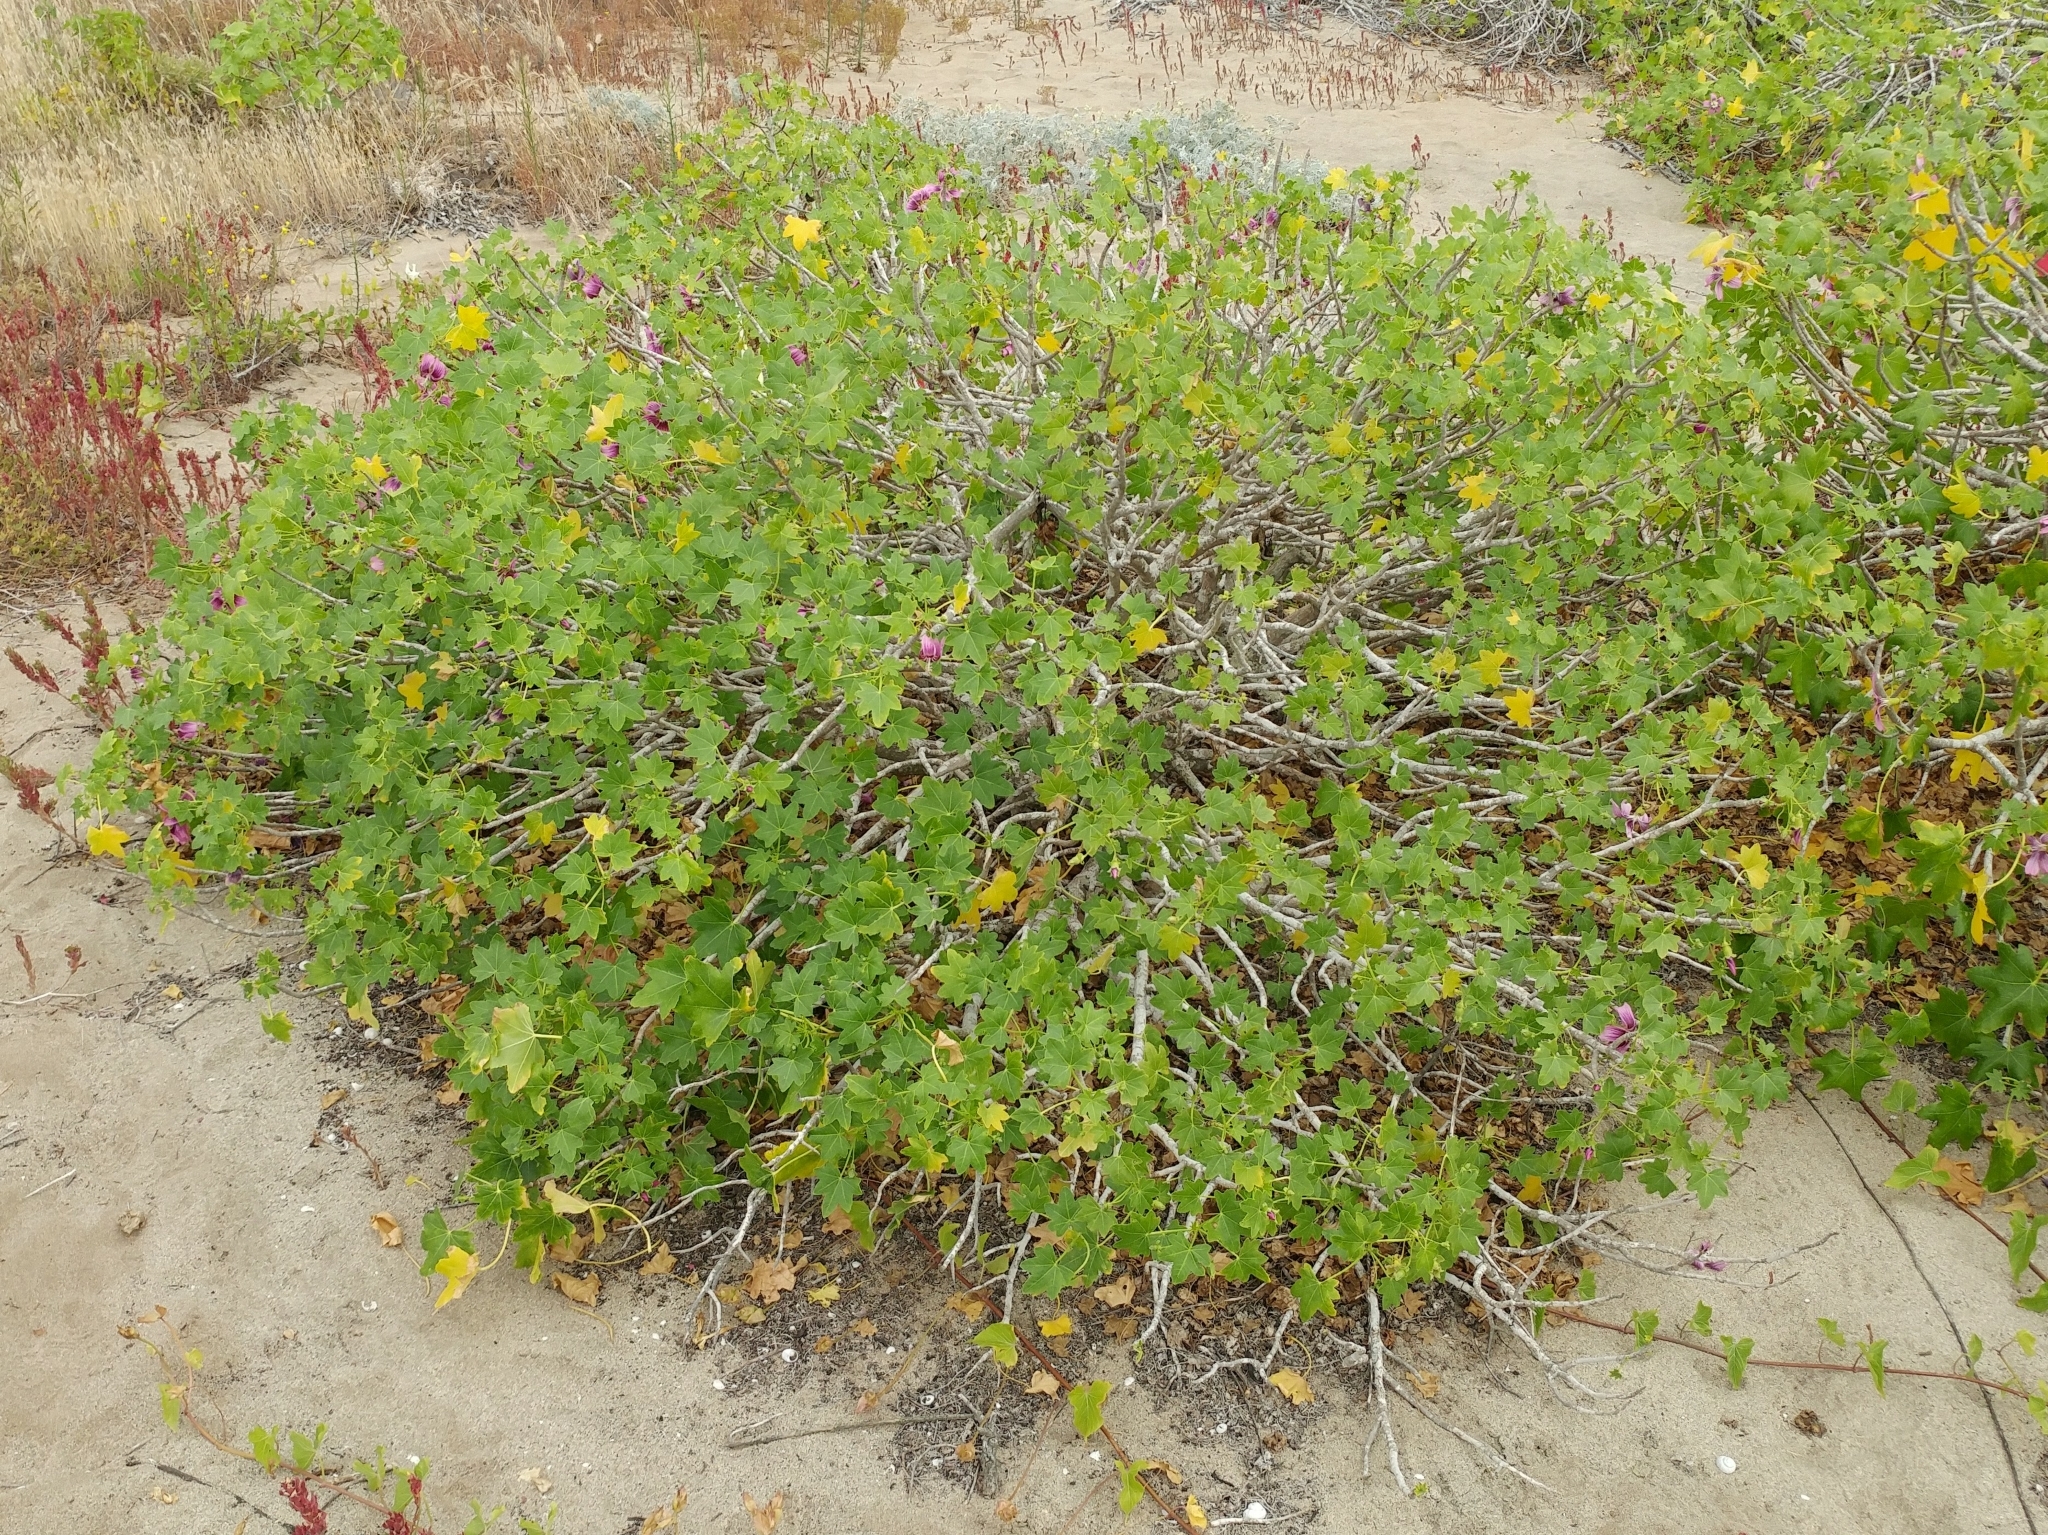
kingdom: Plantae
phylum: Tracheophyta
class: Magnoliopsida
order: Malvales
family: Malvaceae
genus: Malva
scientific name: Malva assurgentiflora
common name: Island mallow
